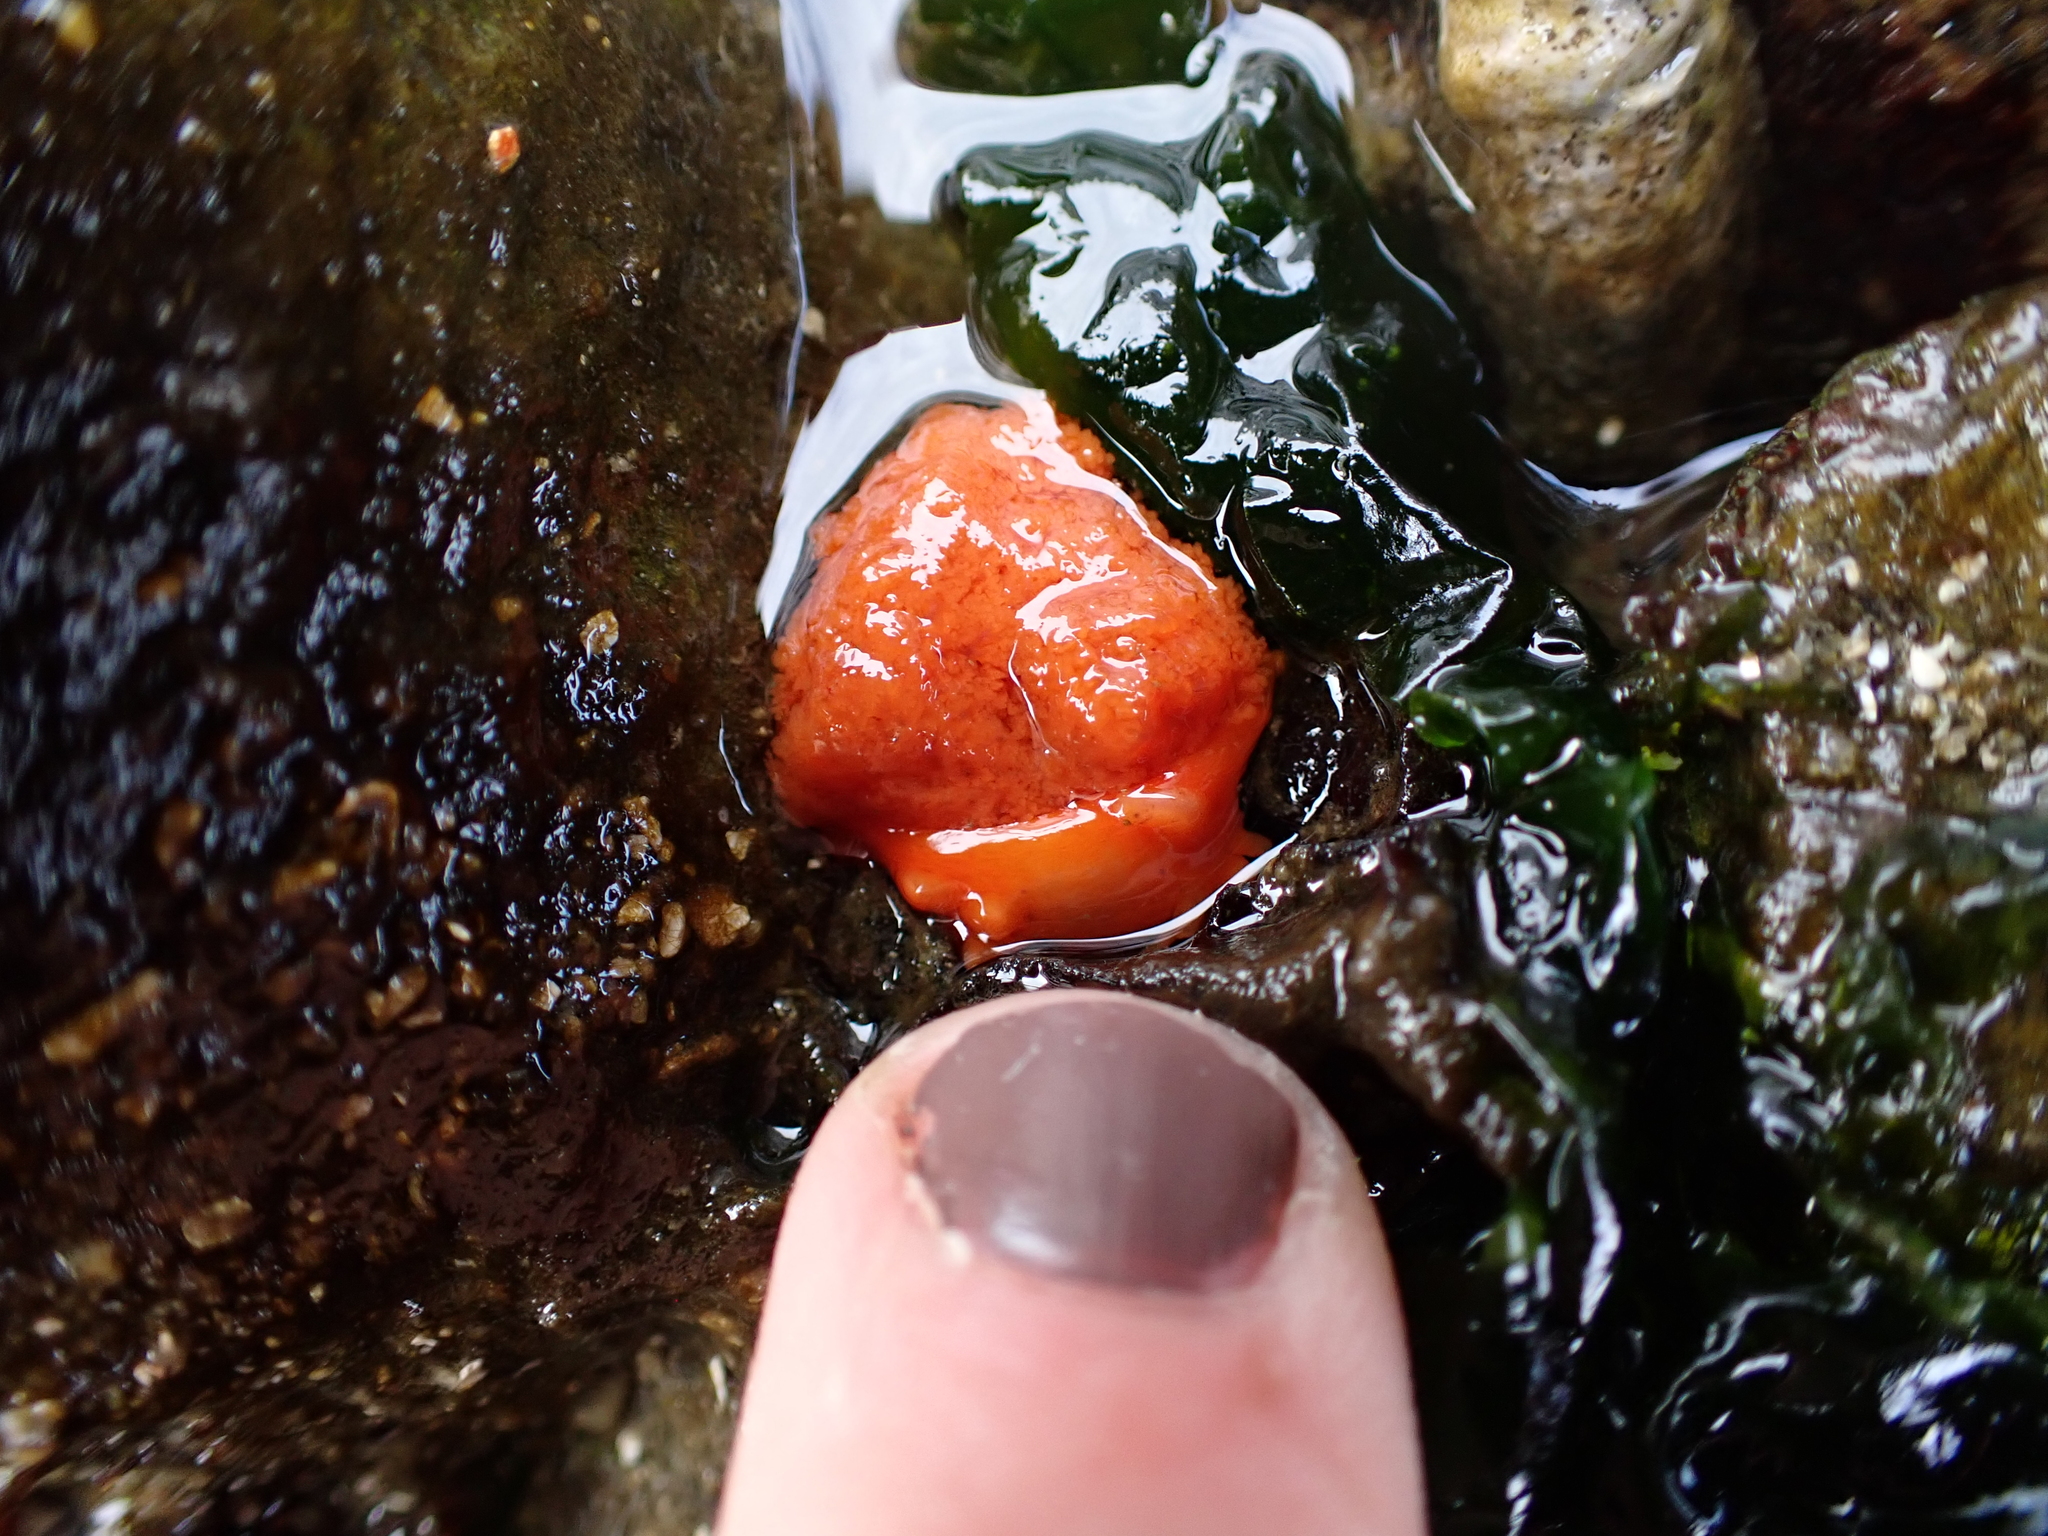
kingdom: Animalia
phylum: Echinodermata
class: Holothuroidea
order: Dendrochirotida
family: Cucumariidae
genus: Cucumaria
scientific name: Cucumaria miniata
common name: Orange sea cucumber
